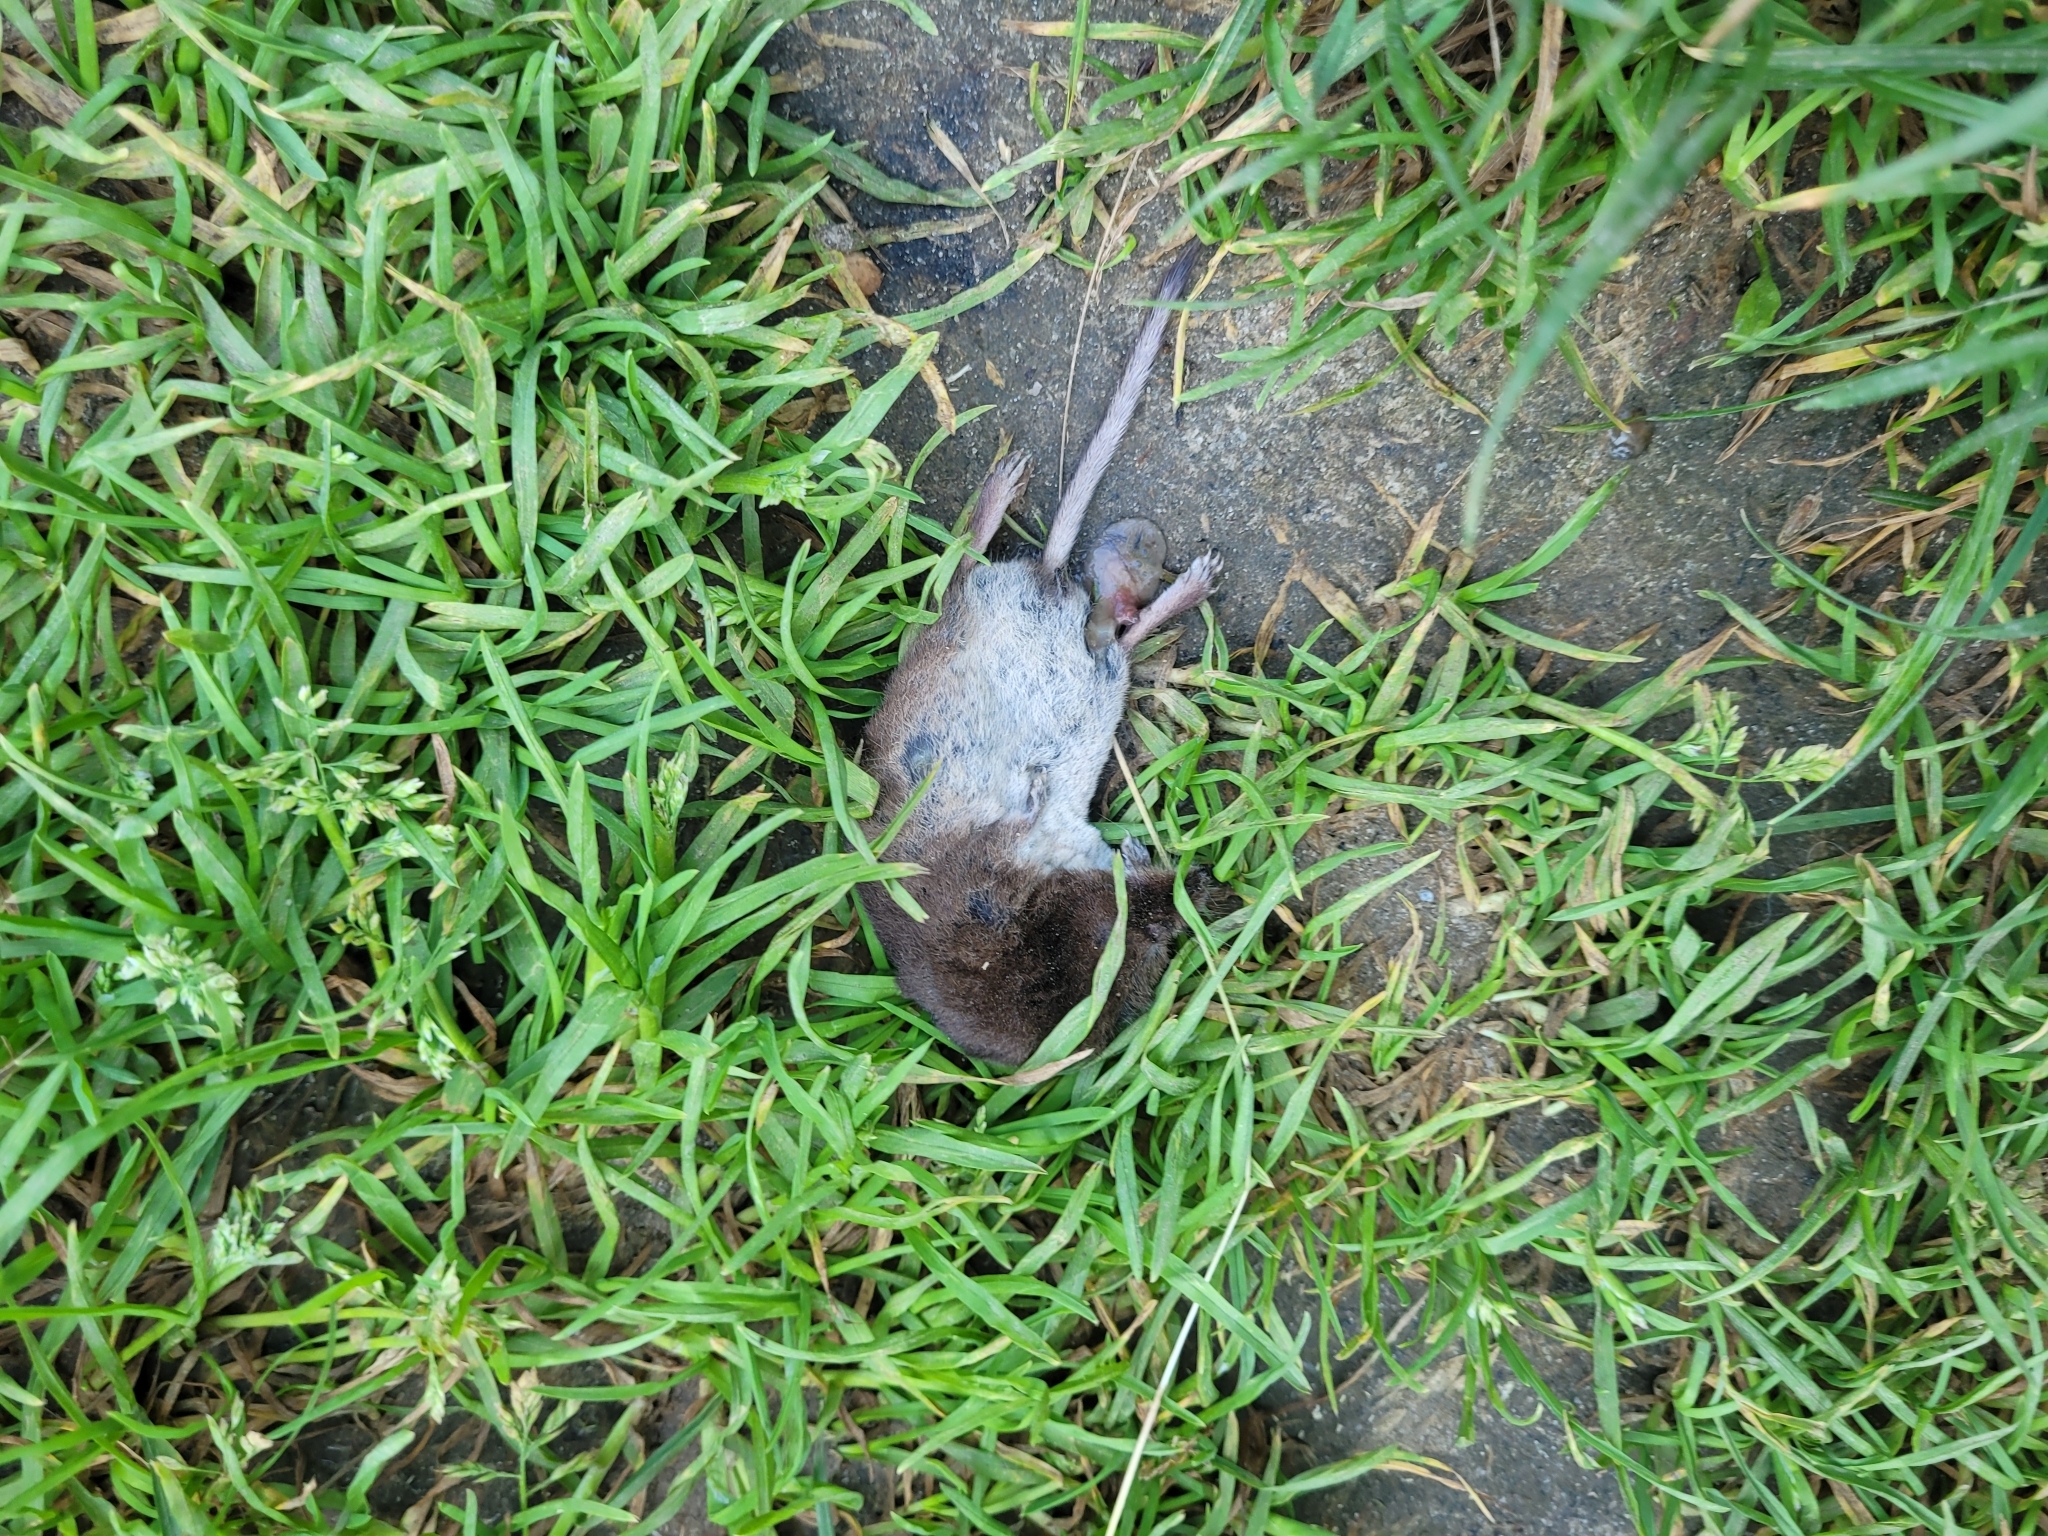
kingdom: Animalia
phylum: Chordata
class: Mammalia
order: Soricomorpha
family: Soricidae
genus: Sorex
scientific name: Sorex araneus
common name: Common shrew
